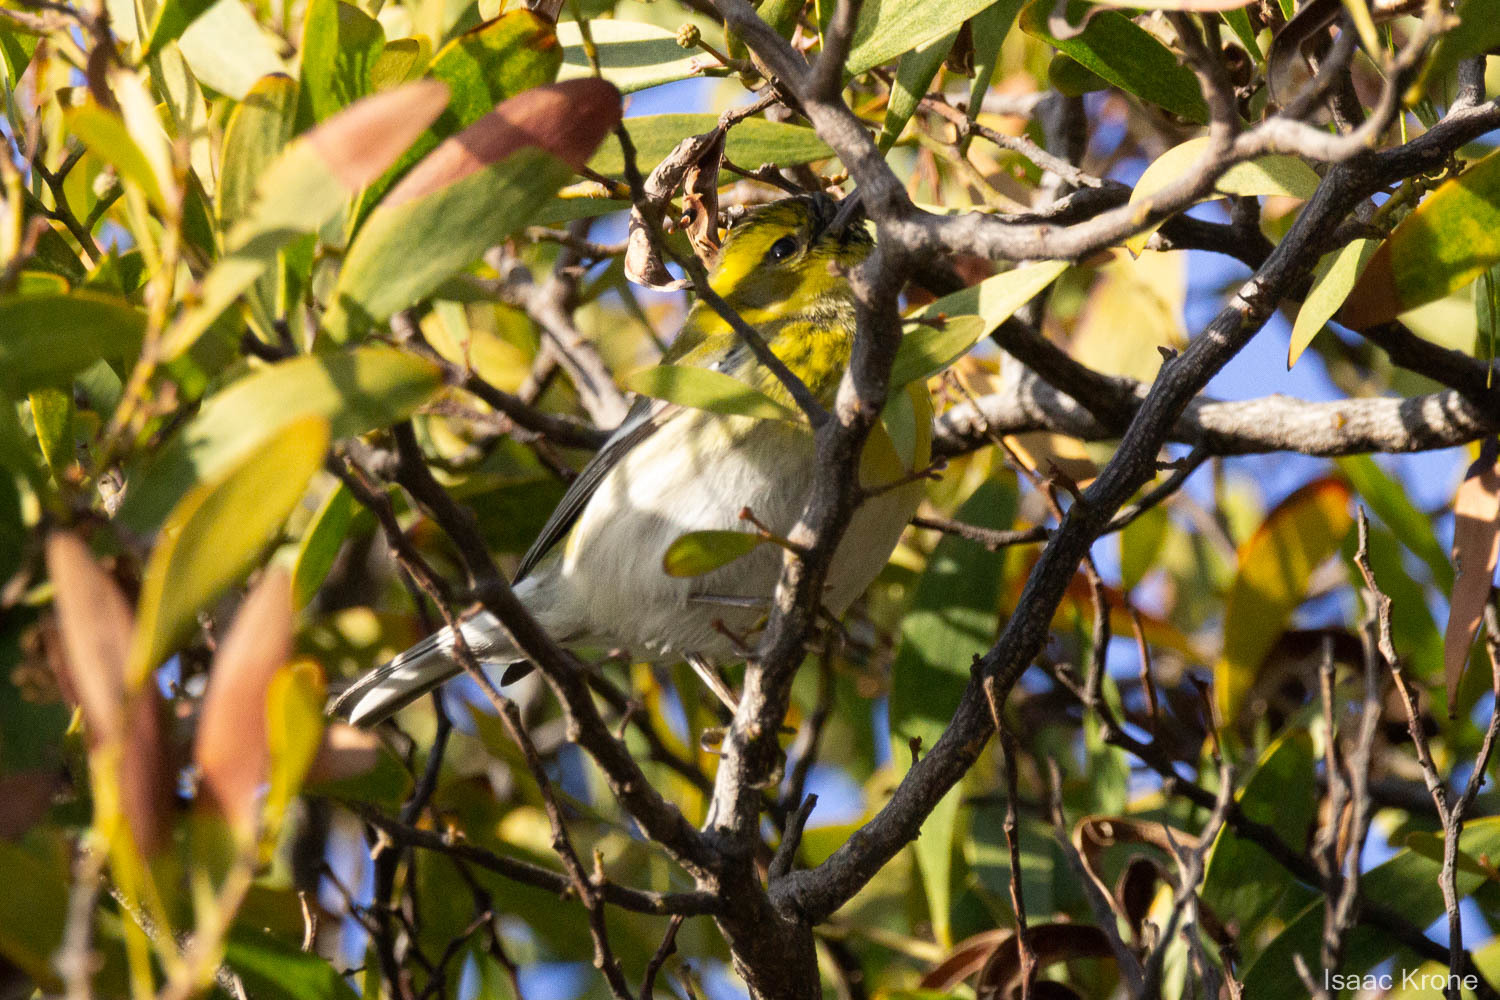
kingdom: Animalia
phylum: Chordata
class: Aves
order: Passeriformes
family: Parulidae
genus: Setophaga
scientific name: Setophaga townsendi
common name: Townsend's warbler
